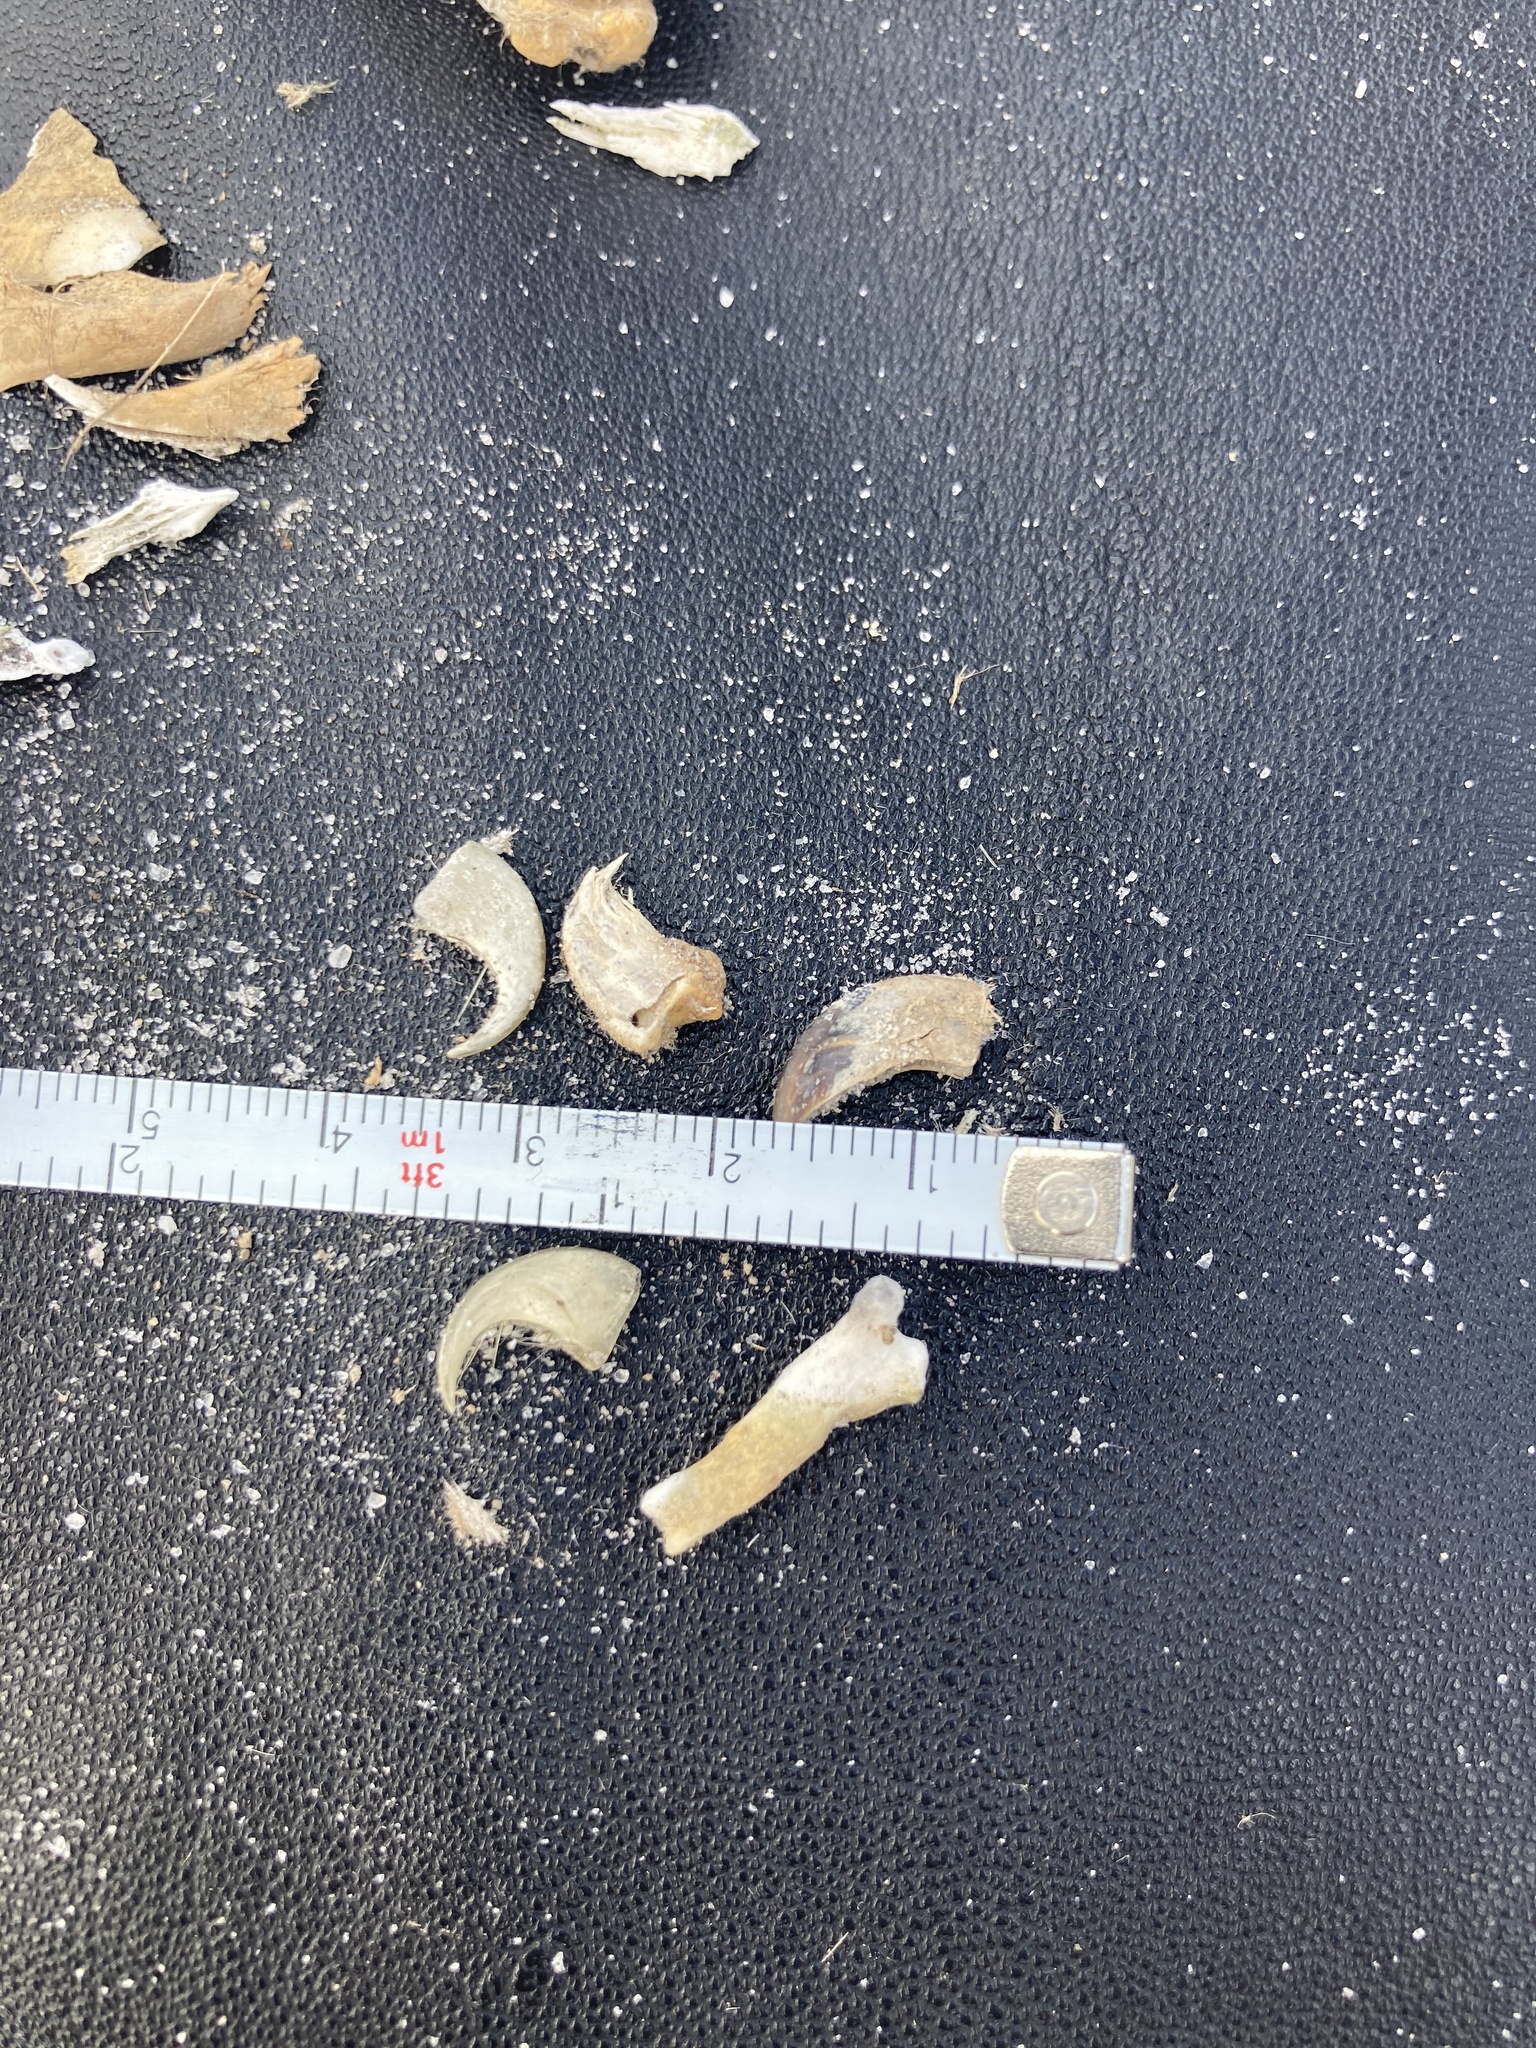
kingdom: Animalia
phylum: Chordata
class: Mammalia
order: Carnivora
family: Felidae
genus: Felis
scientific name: Felis catus
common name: Domestic cat
